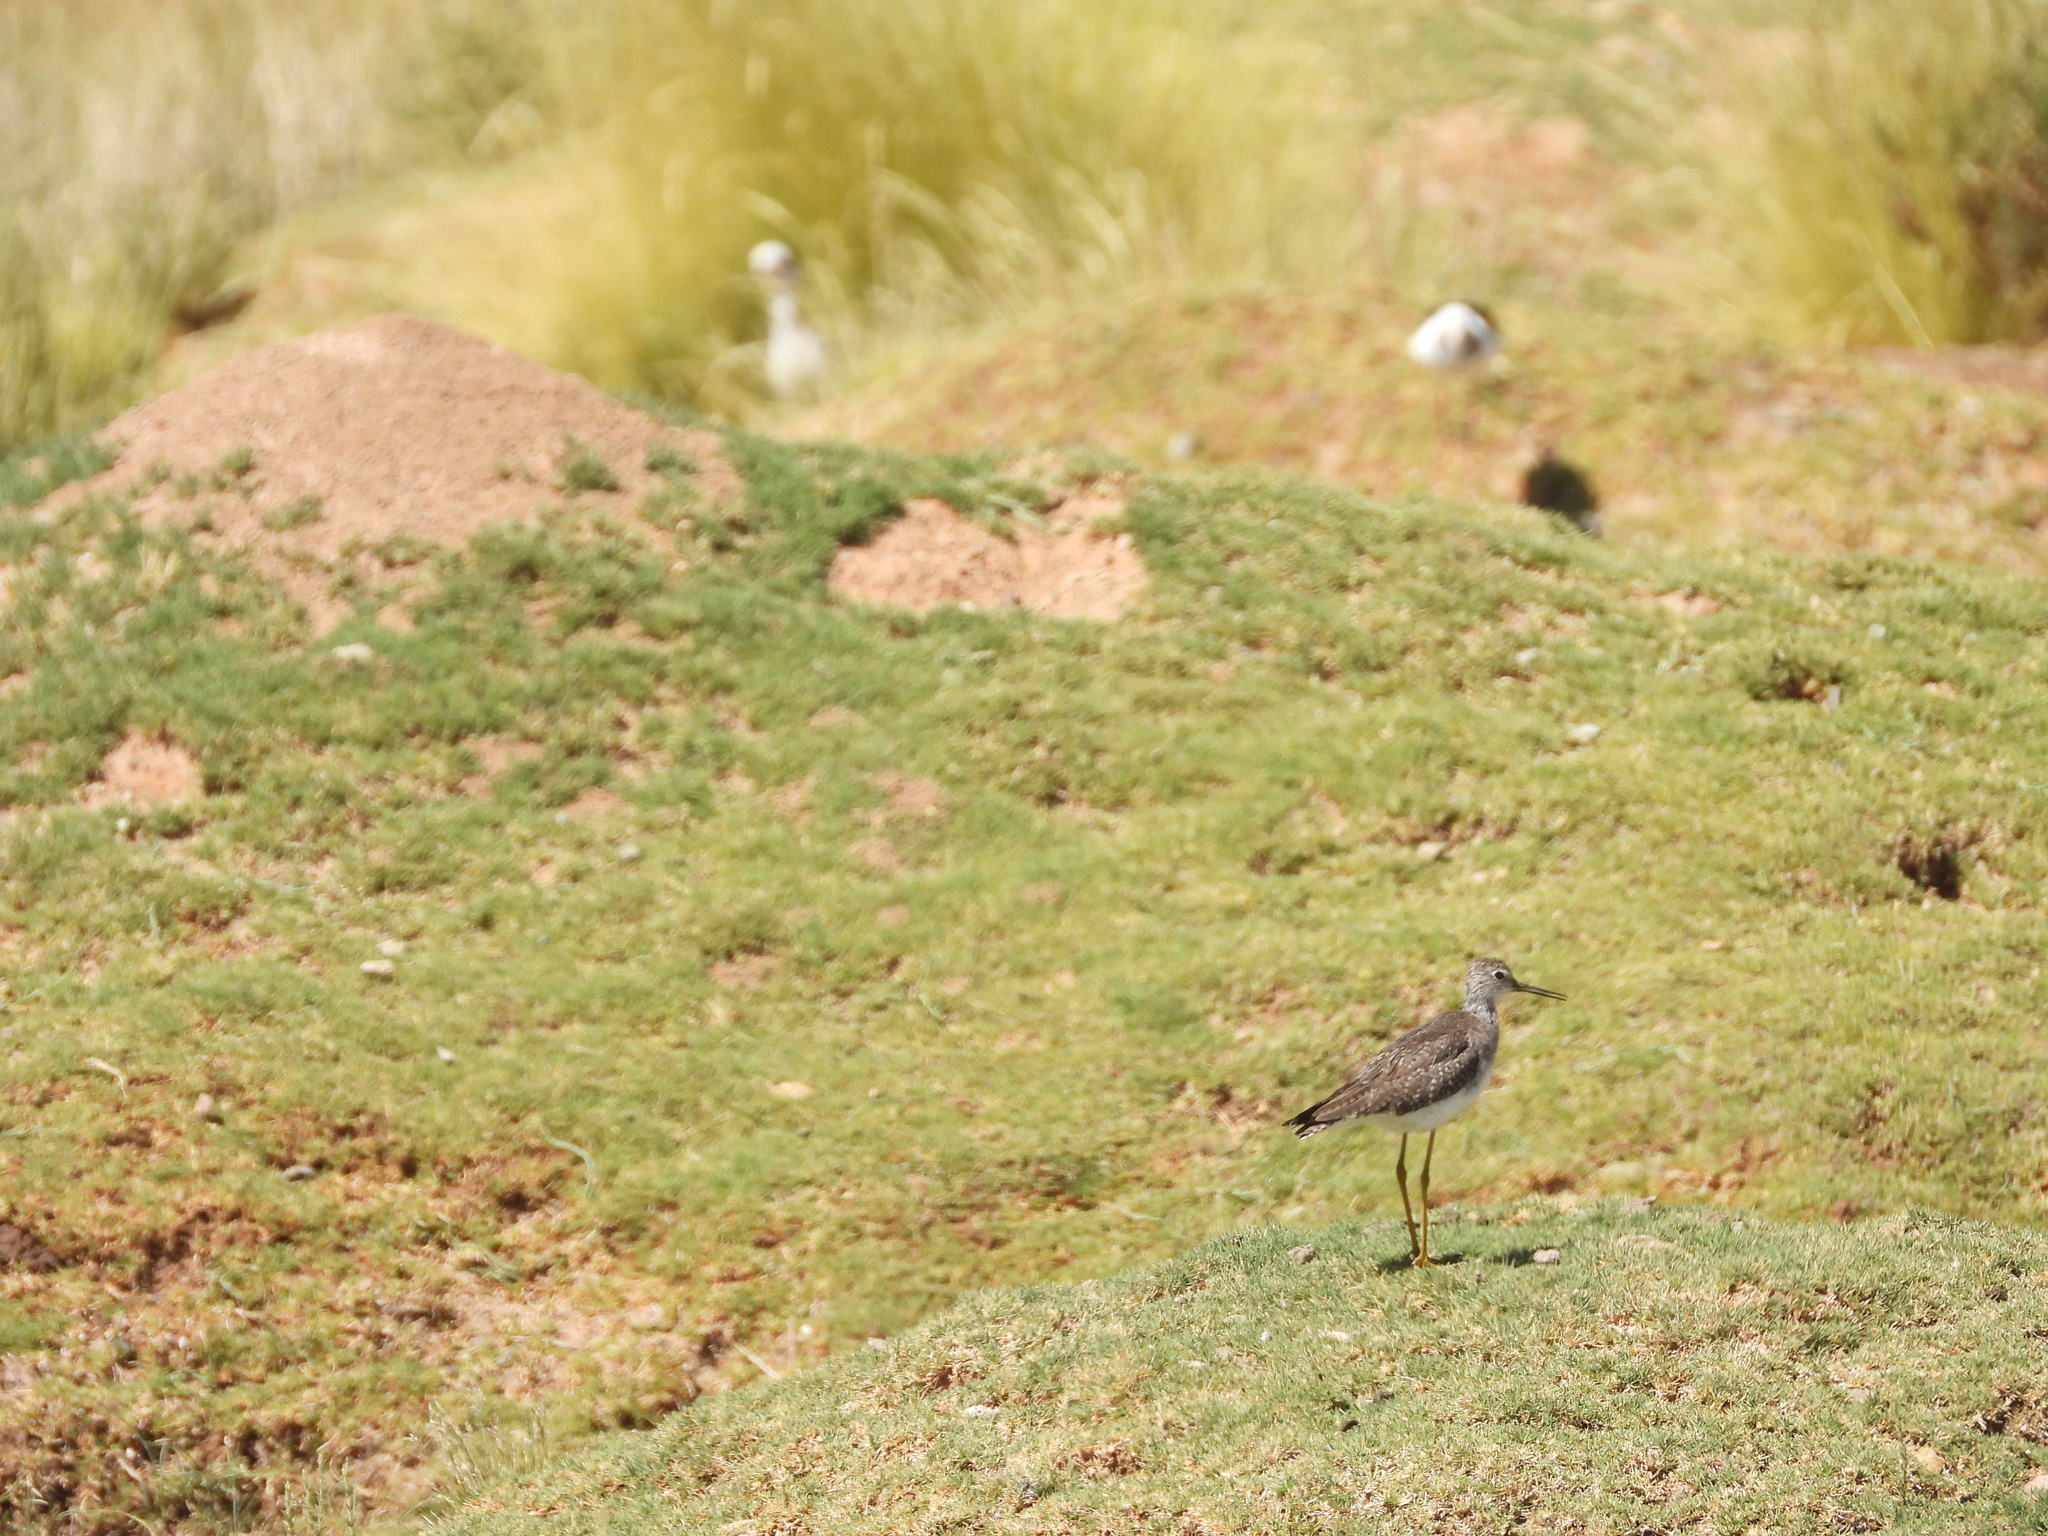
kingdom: Animalia
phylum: Chordata
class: Aves
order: Charadriiformes
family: Scolopacidae
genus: Tringa
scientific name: Tringa flavipes
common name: Lesser yellowlegs
